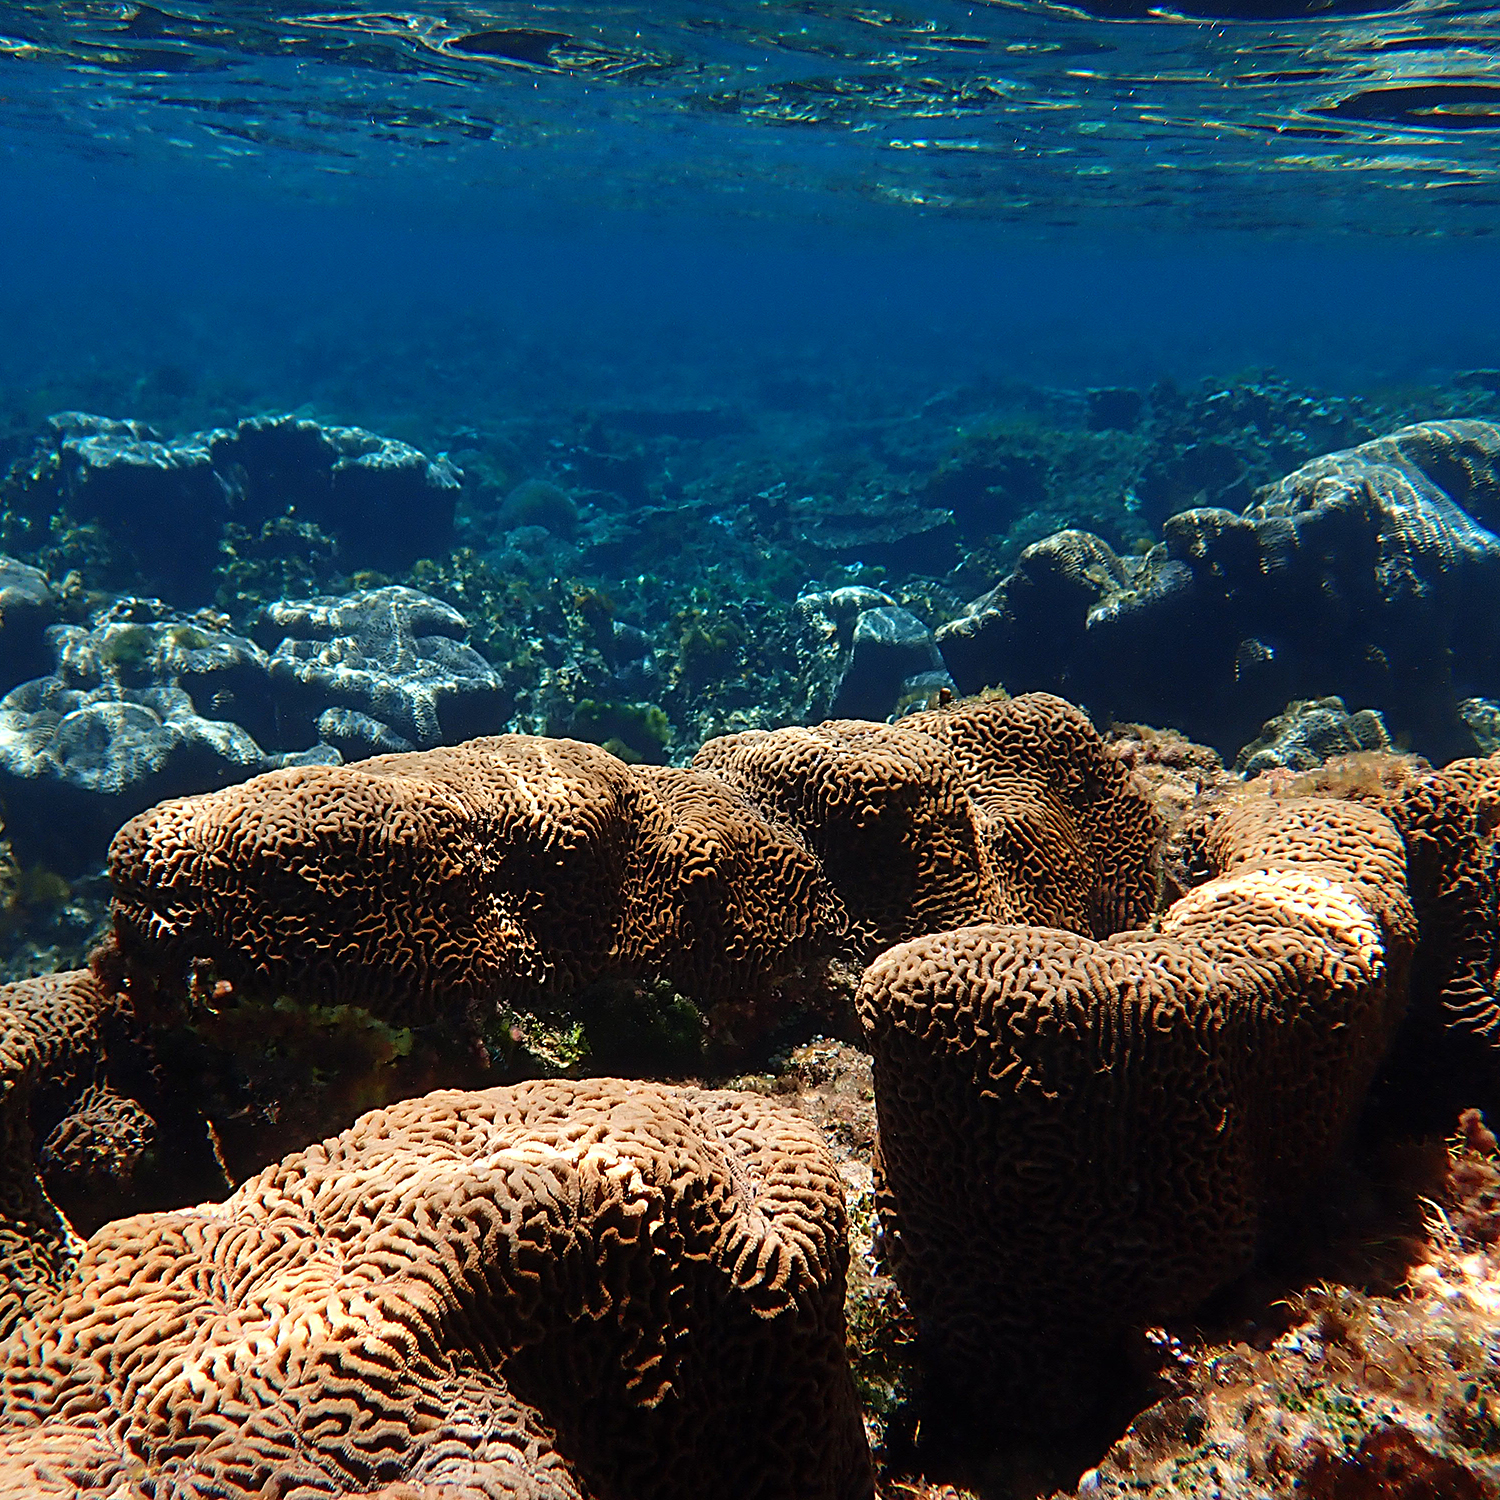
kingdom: Animalia
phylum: Cnidaria
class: Anthozoa
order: Scleractinia
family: Merulinidae
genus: Paragoniastrea
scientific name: Paragoniastrea australensis
